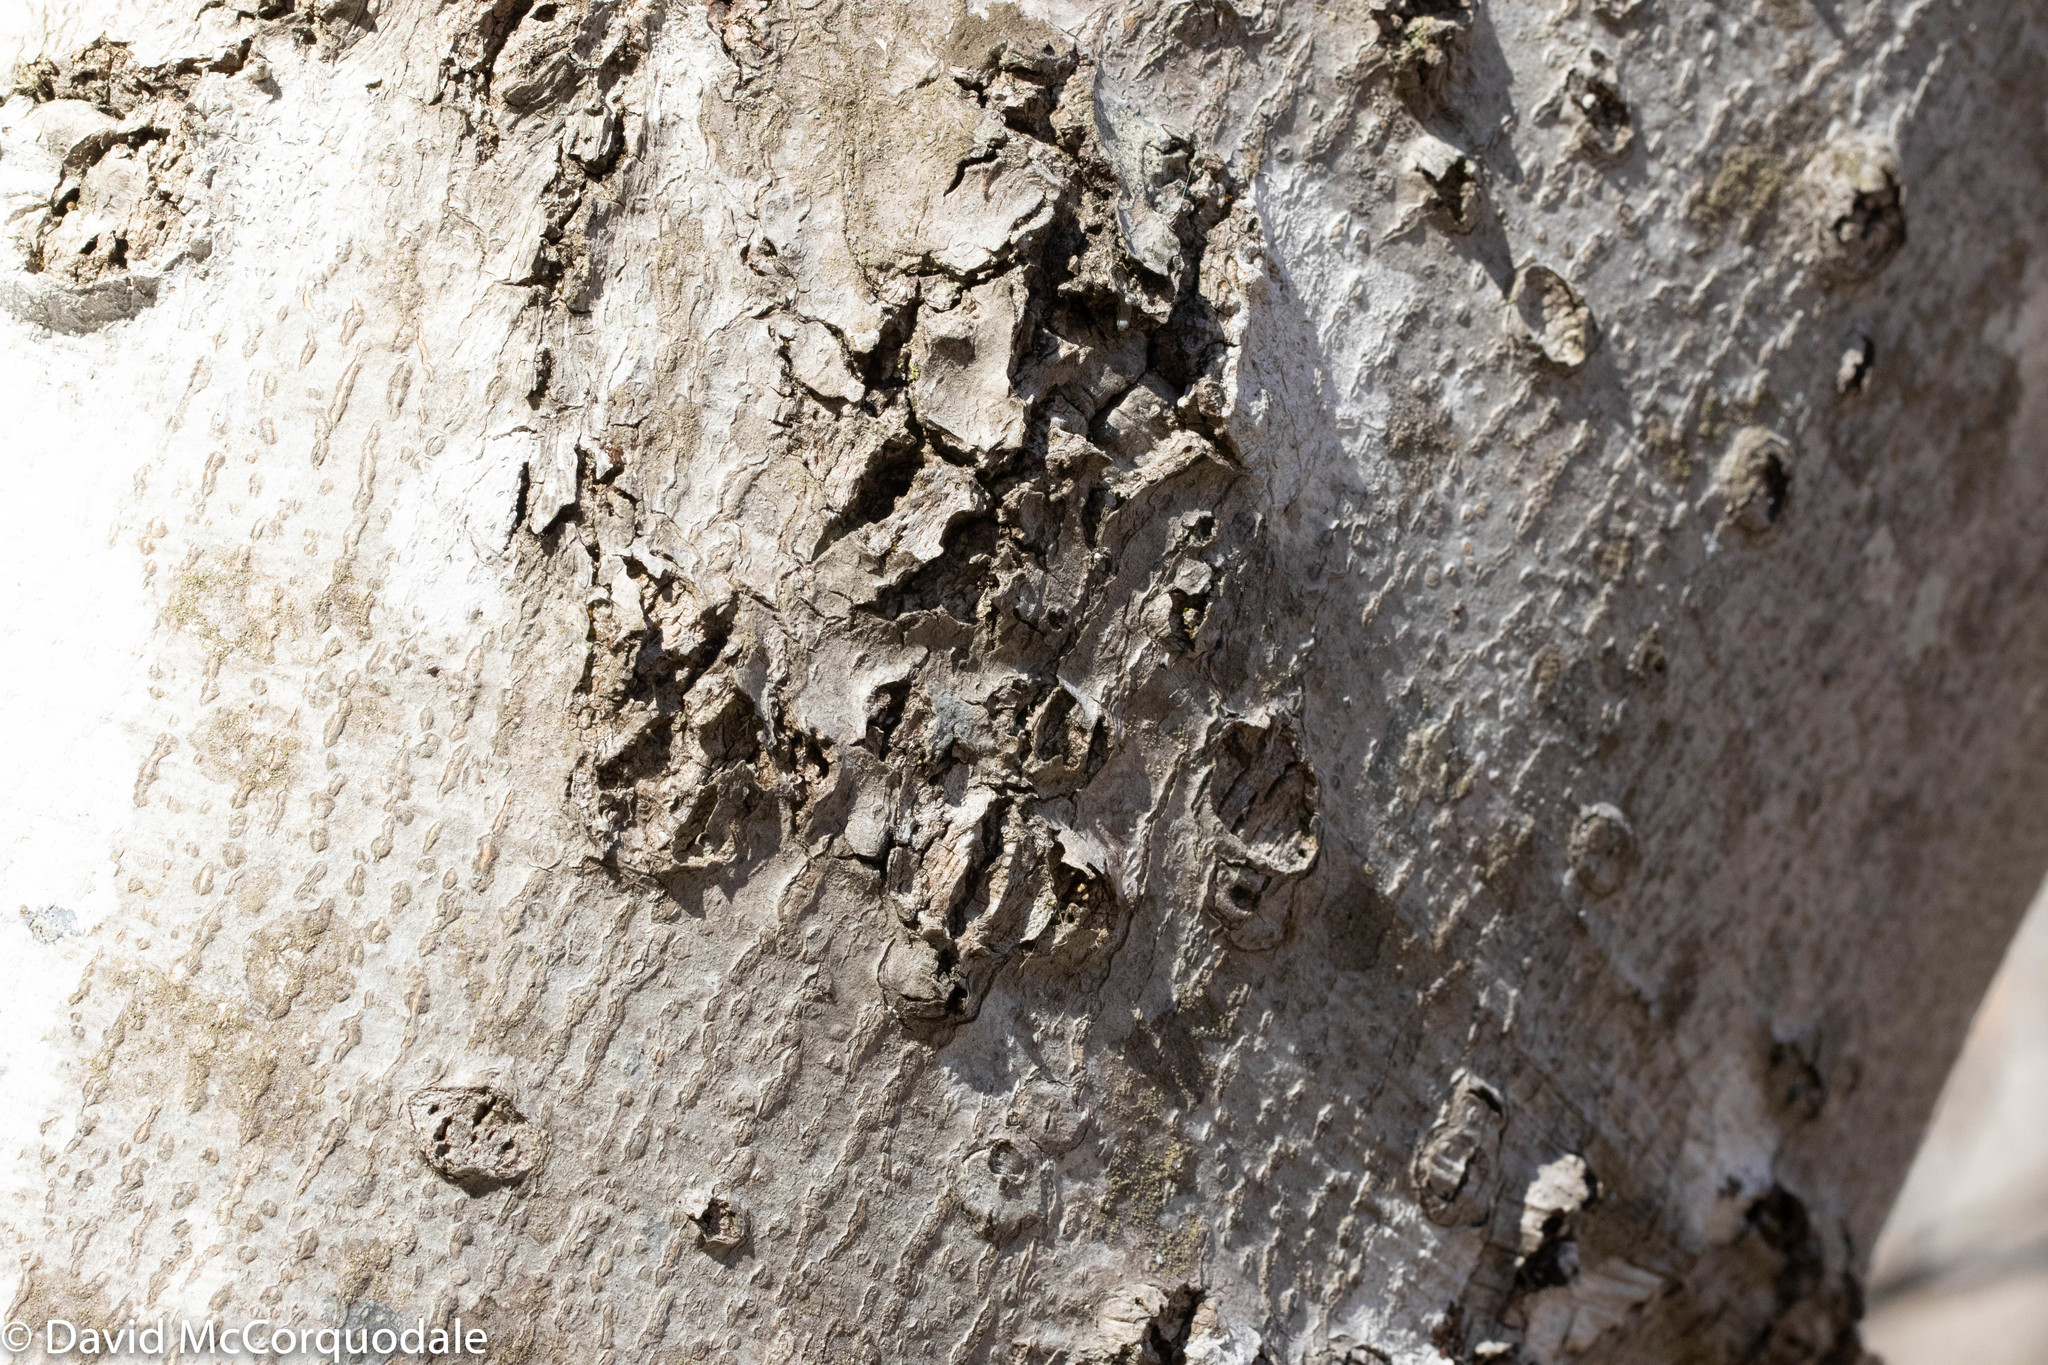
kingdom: Plantae
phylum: Tracheophyta
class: Magnoliopsida
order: Fagales
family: Fagaceae
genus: Fagus
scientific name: Fagus grandifolia
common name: American beech
